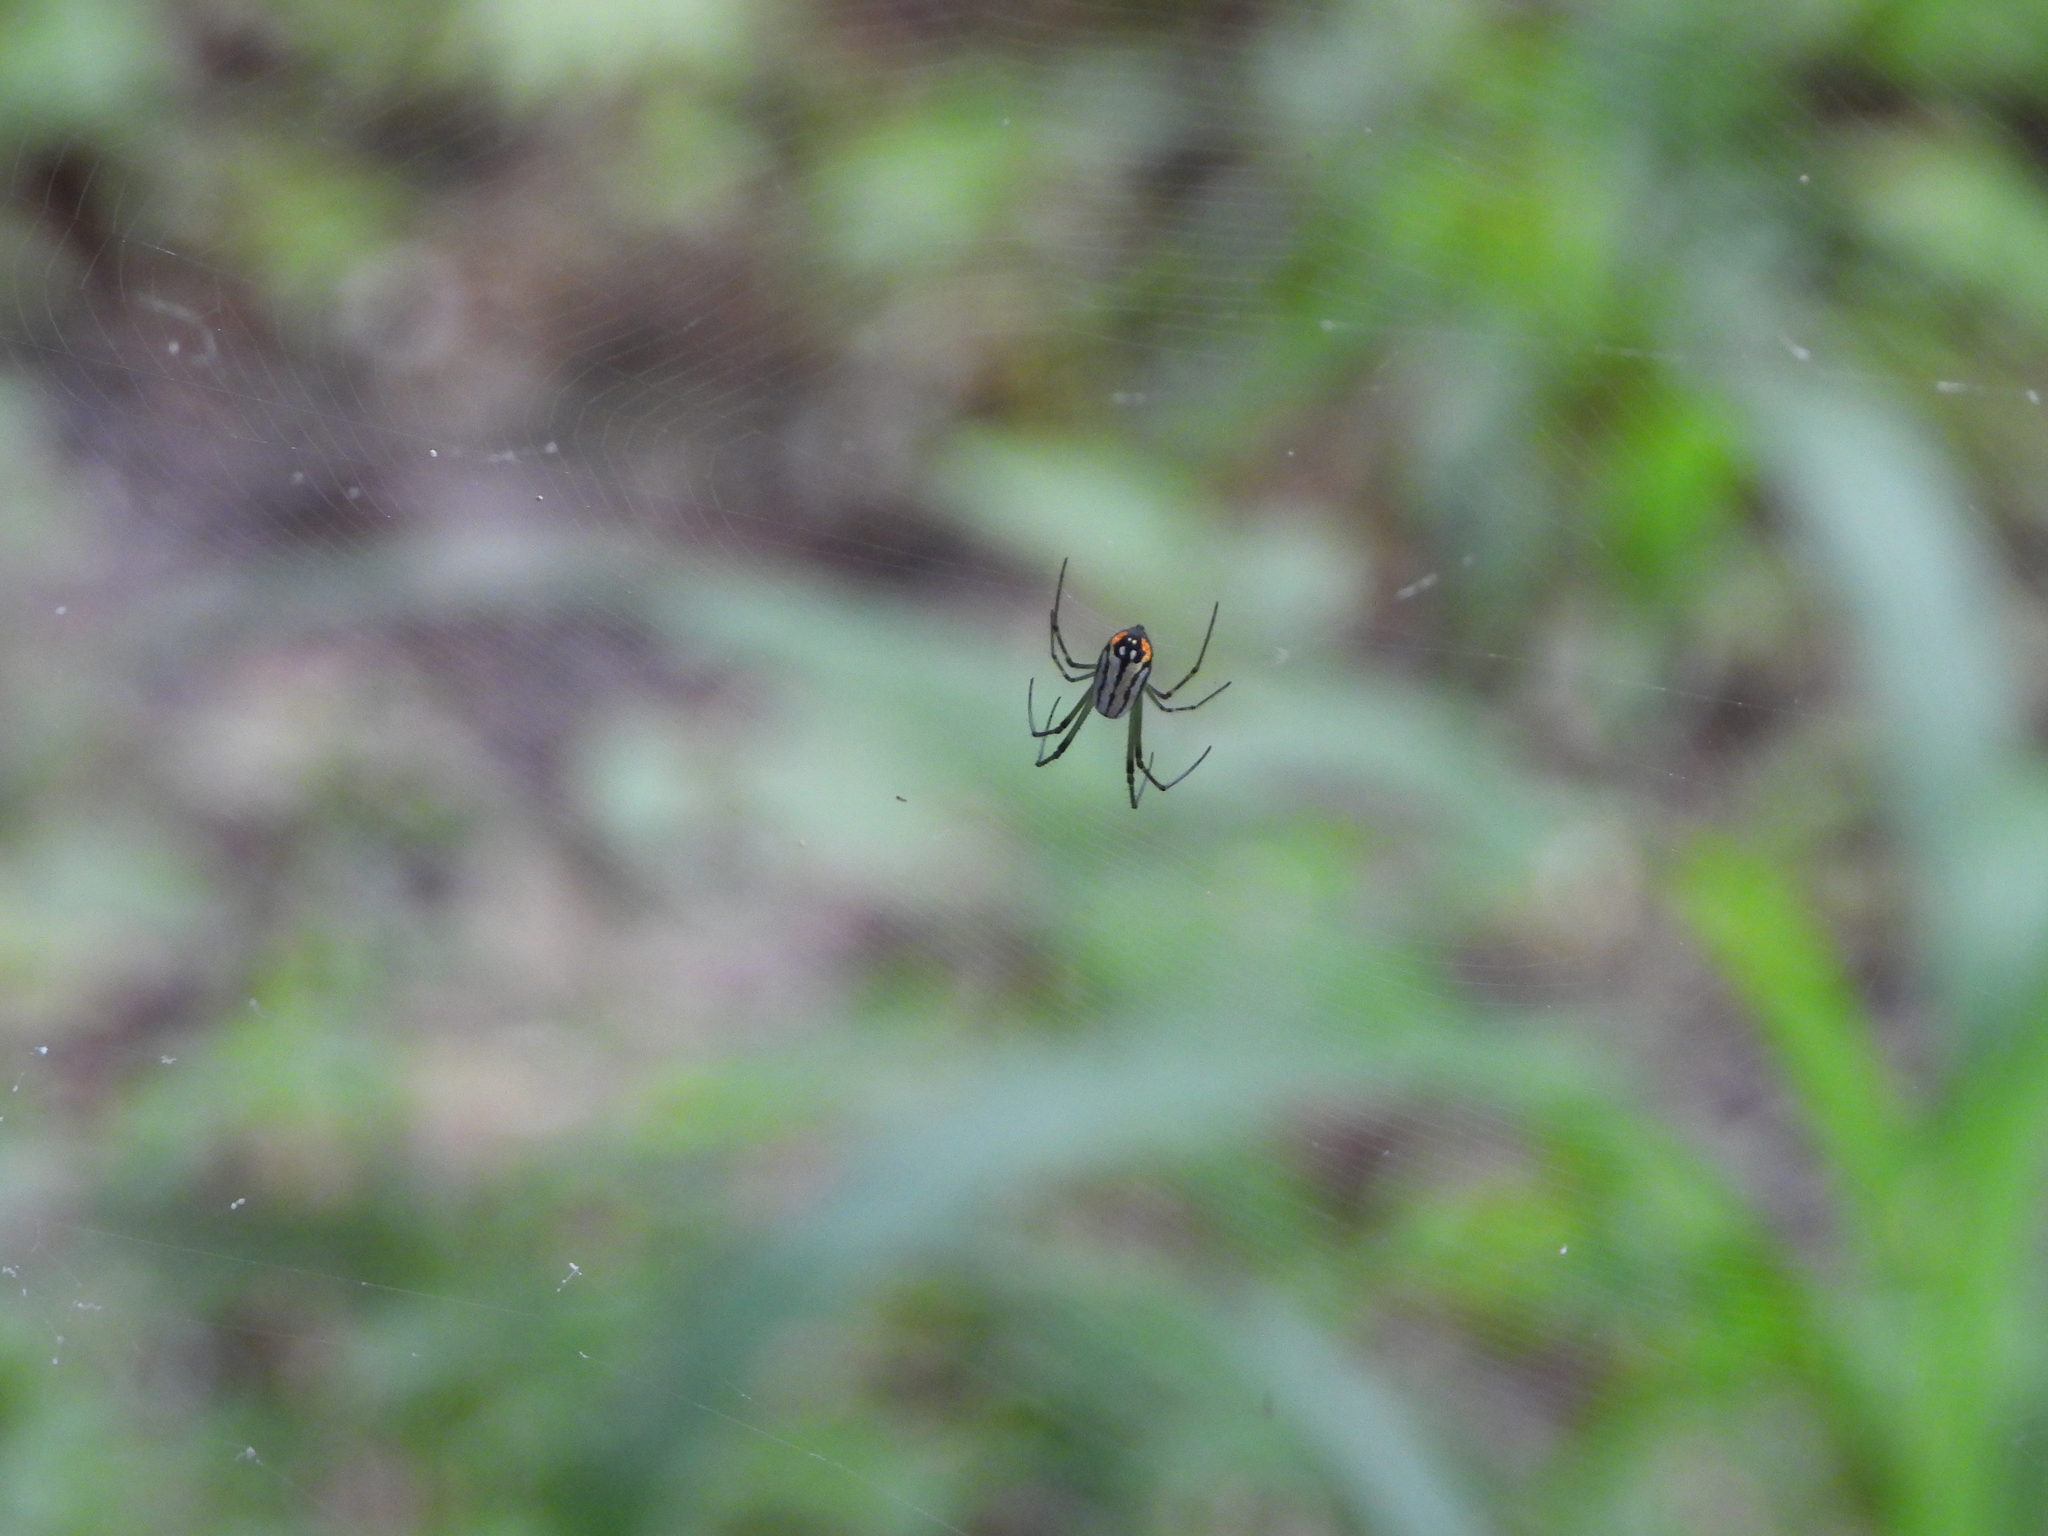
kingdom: Animalia
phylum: Arthropoda
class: Arachnida
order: Araneae
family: Tetragnathidae
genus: Leucauge
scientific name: Leucauge argyrobapta
